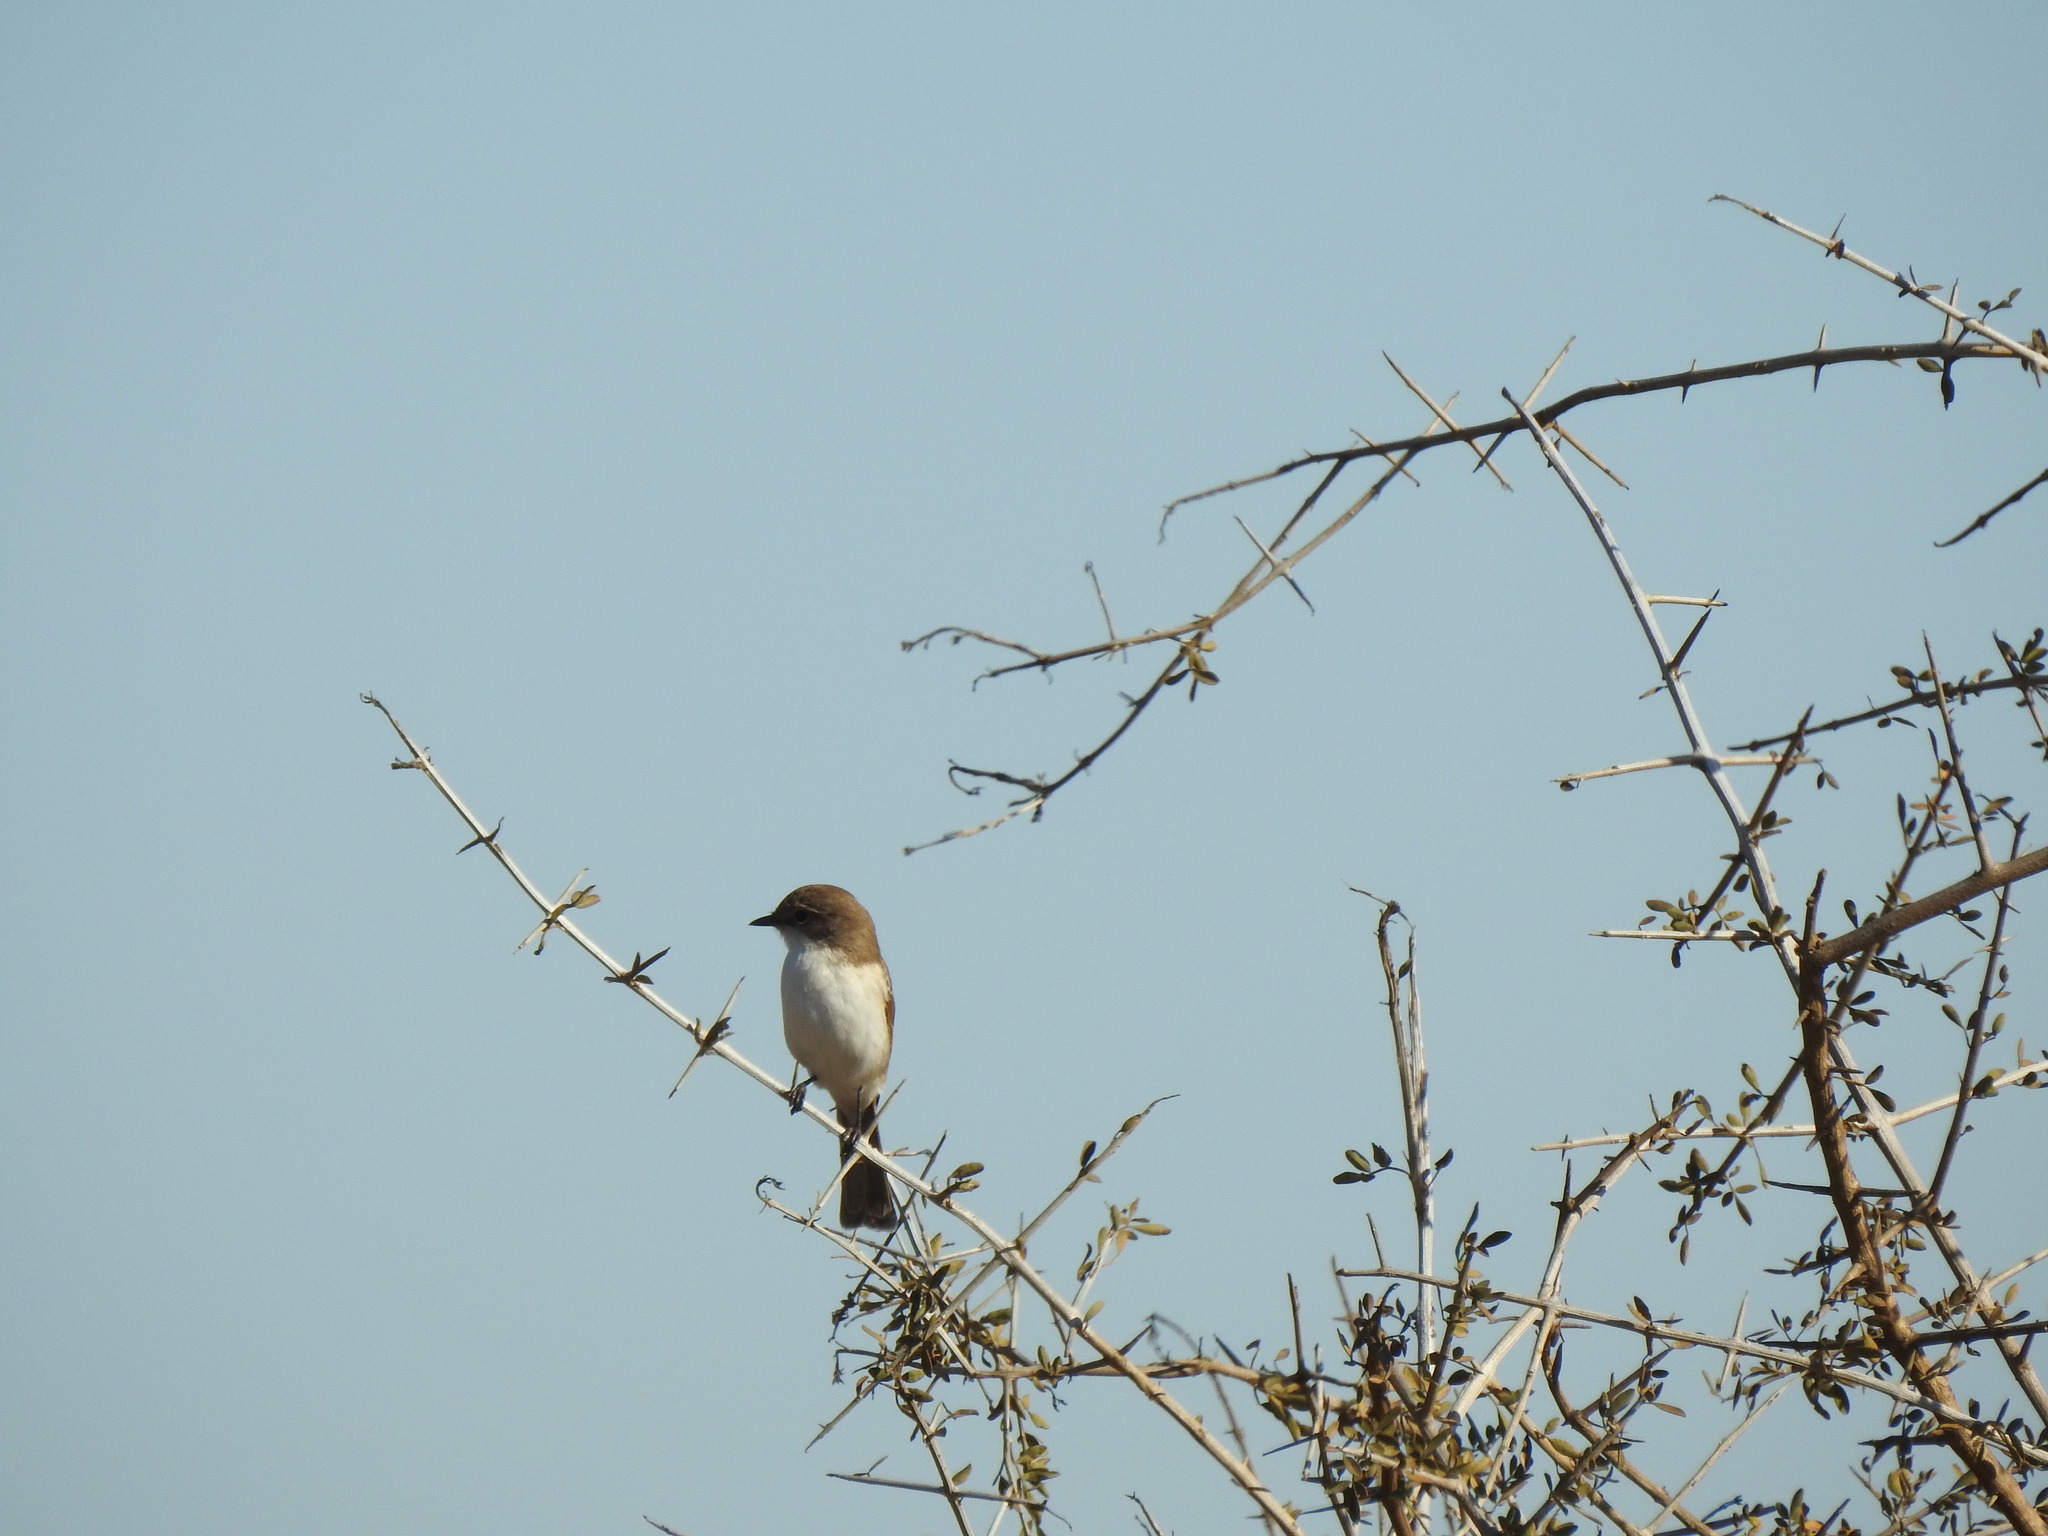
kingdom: Animalia
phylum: Chordata
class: Aves
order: Passeriformes
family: Muscicapidae
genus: Bradornis
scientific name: Bradornis mariquensis
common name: Marico flycatcher
